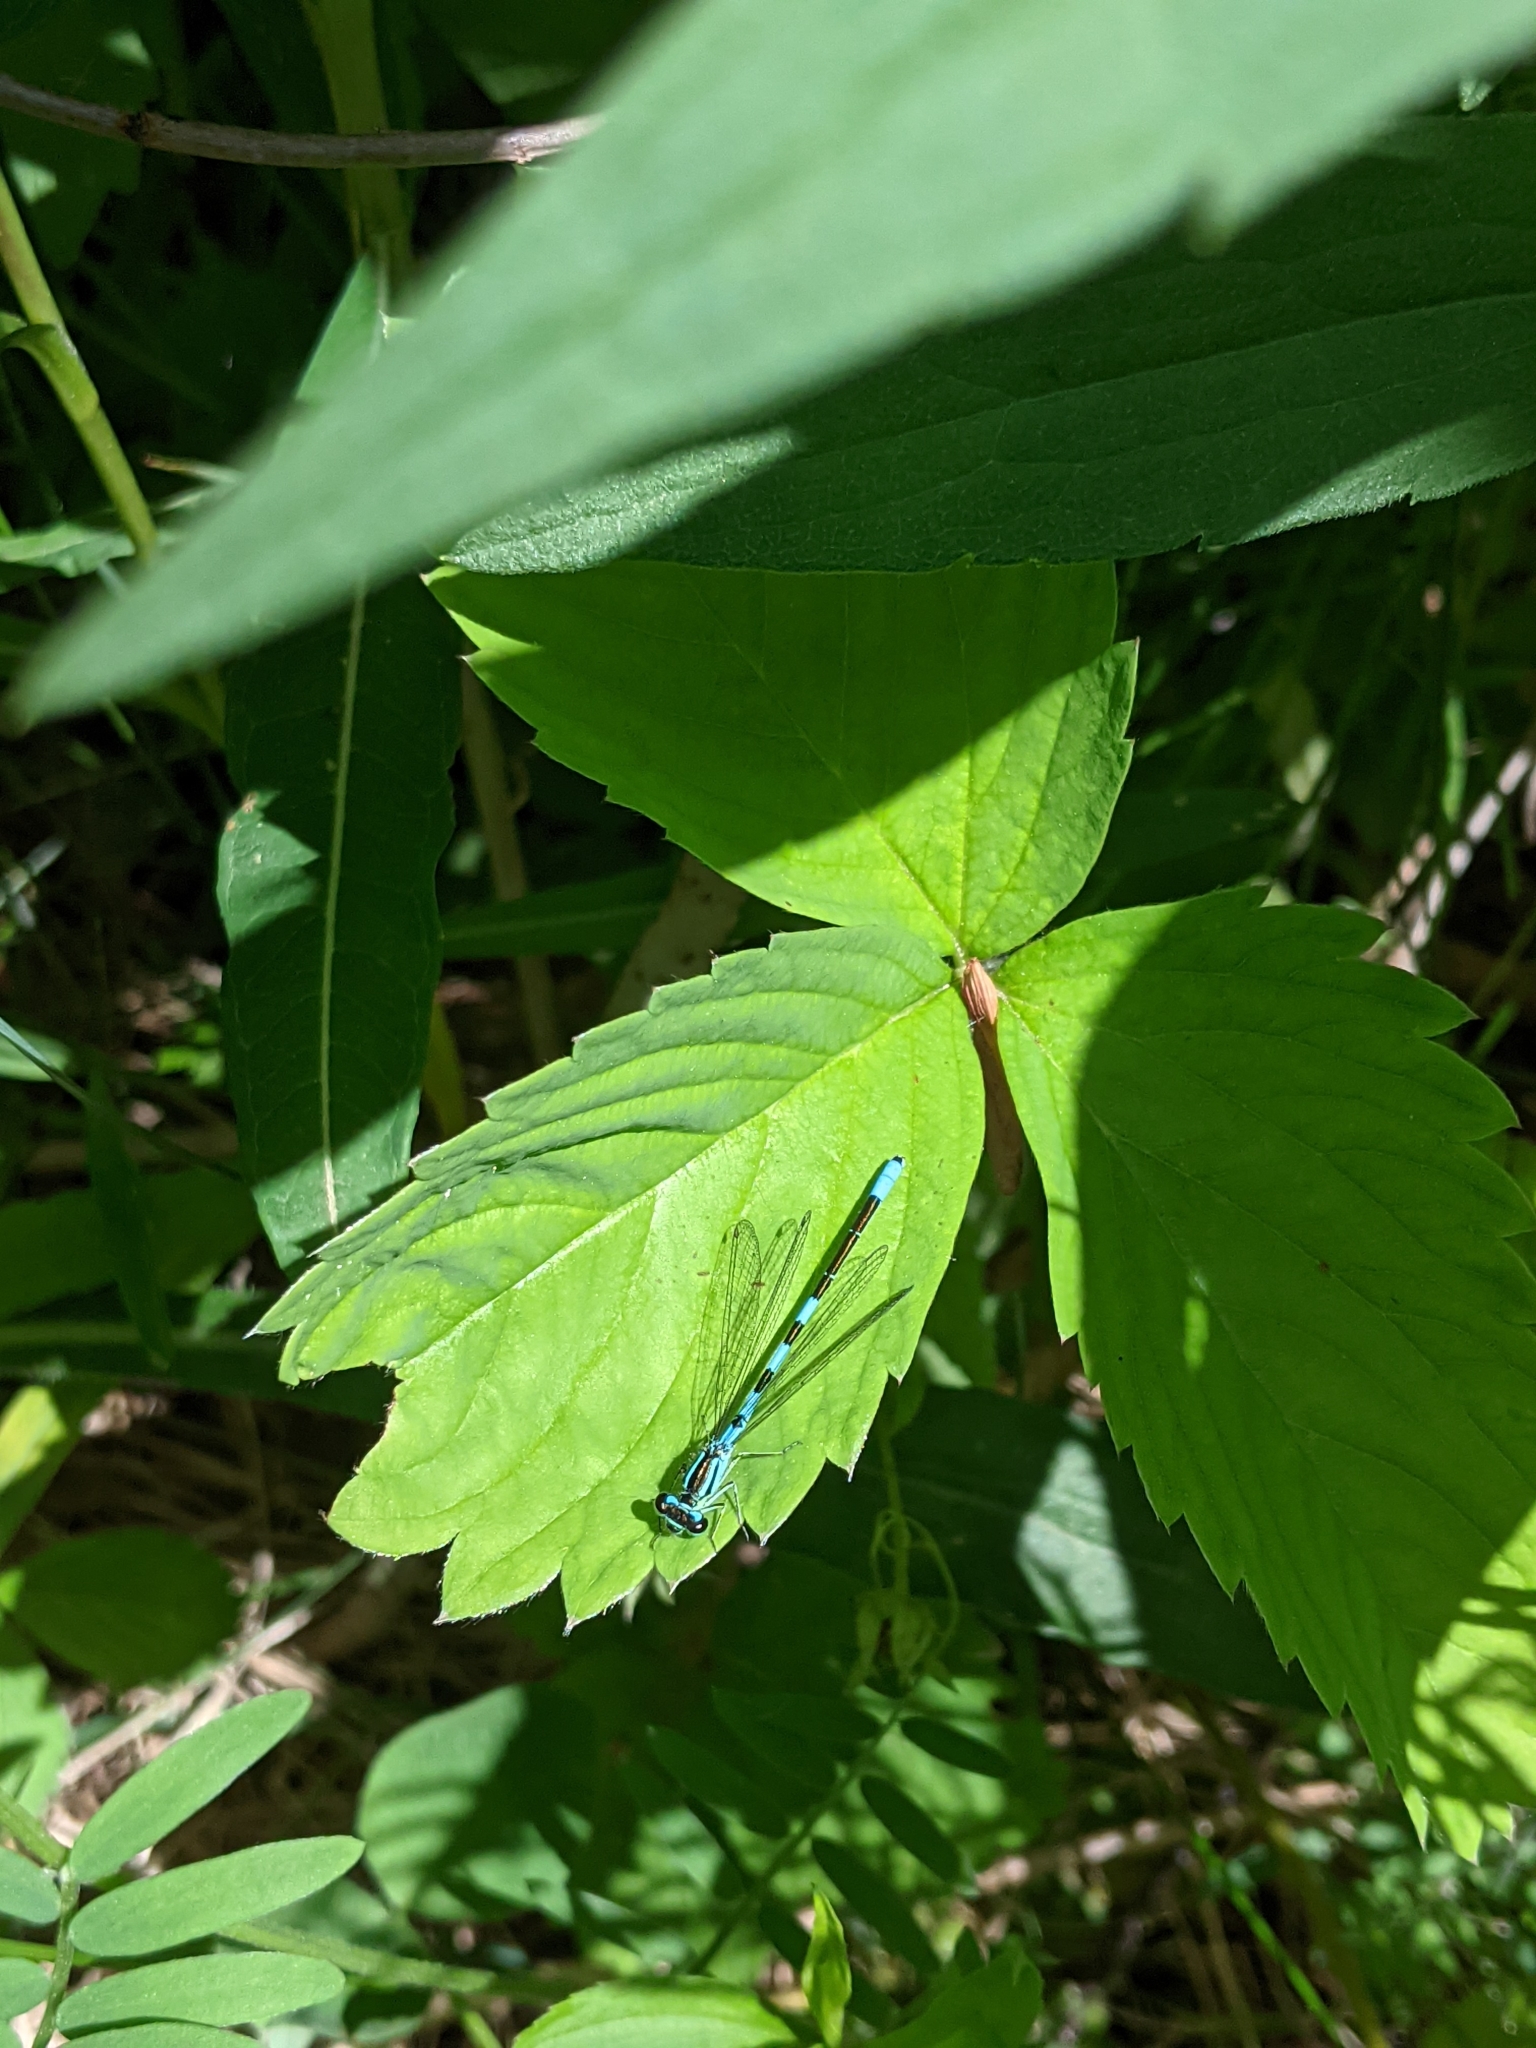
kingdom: Animalia
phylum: Arthropoda
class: Insecta
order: Odonata
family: Coenagrionidae
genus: Coenagrion
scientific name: Coenagrion resolutum
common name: Taiga bluet
